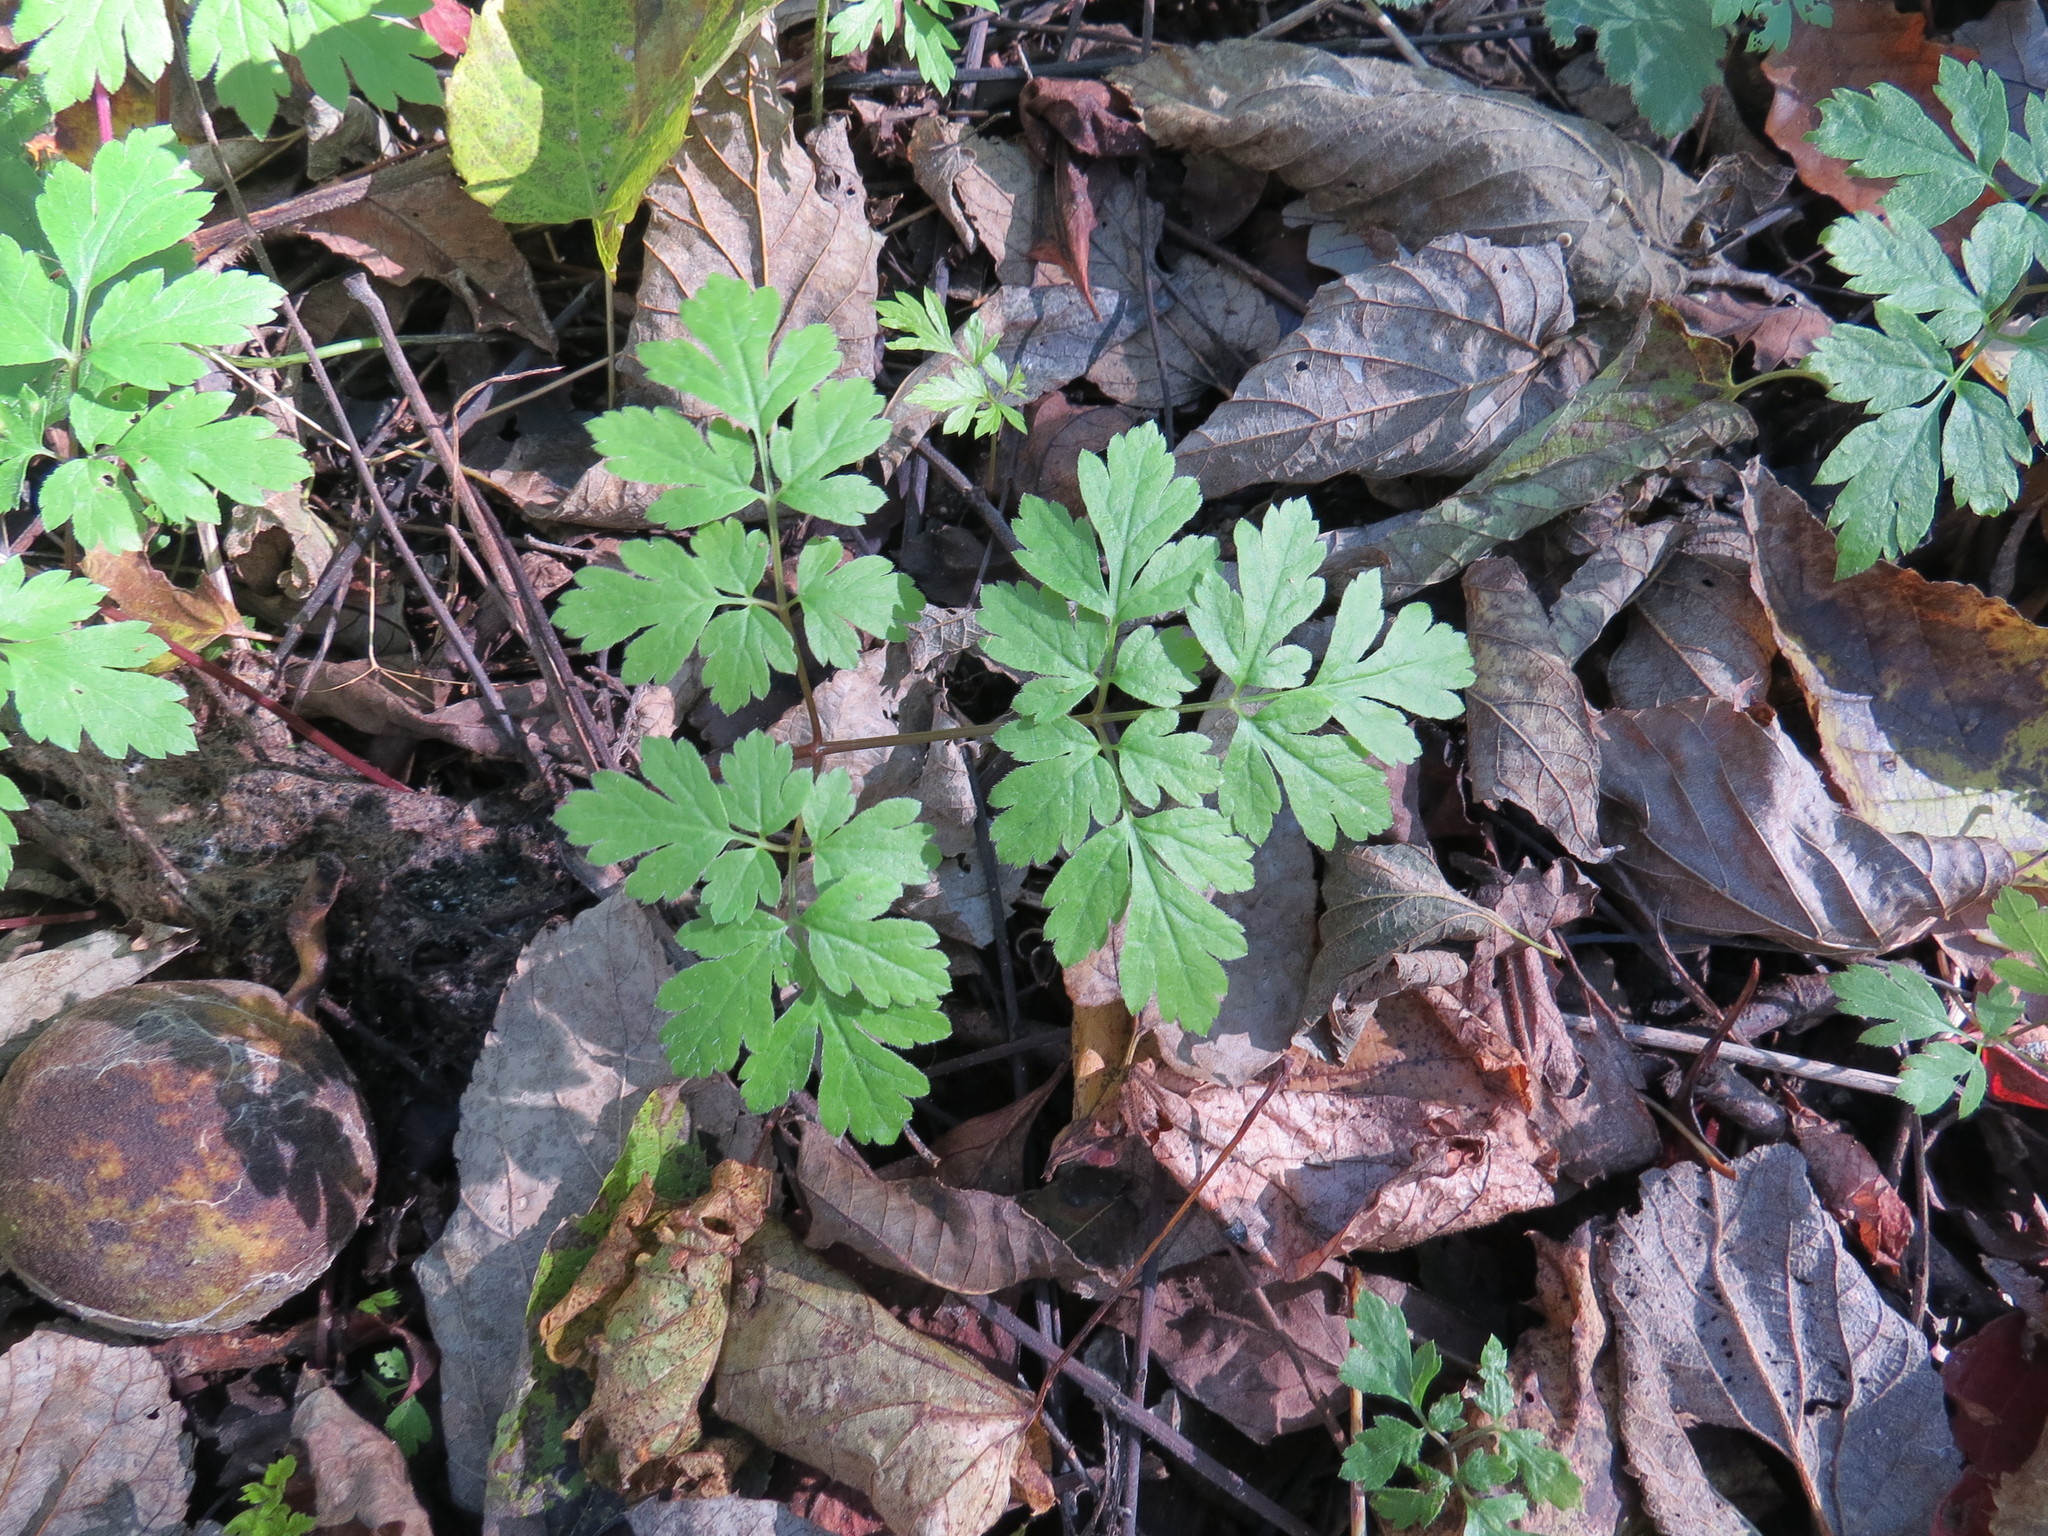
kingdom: Plantae
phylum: Tracheophyta
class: Magnoliopsida
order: Apiales
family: Apiaceae
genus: Osmorhiza
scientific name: Osmorhiza longistylis
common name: Smooth sweet cicely
